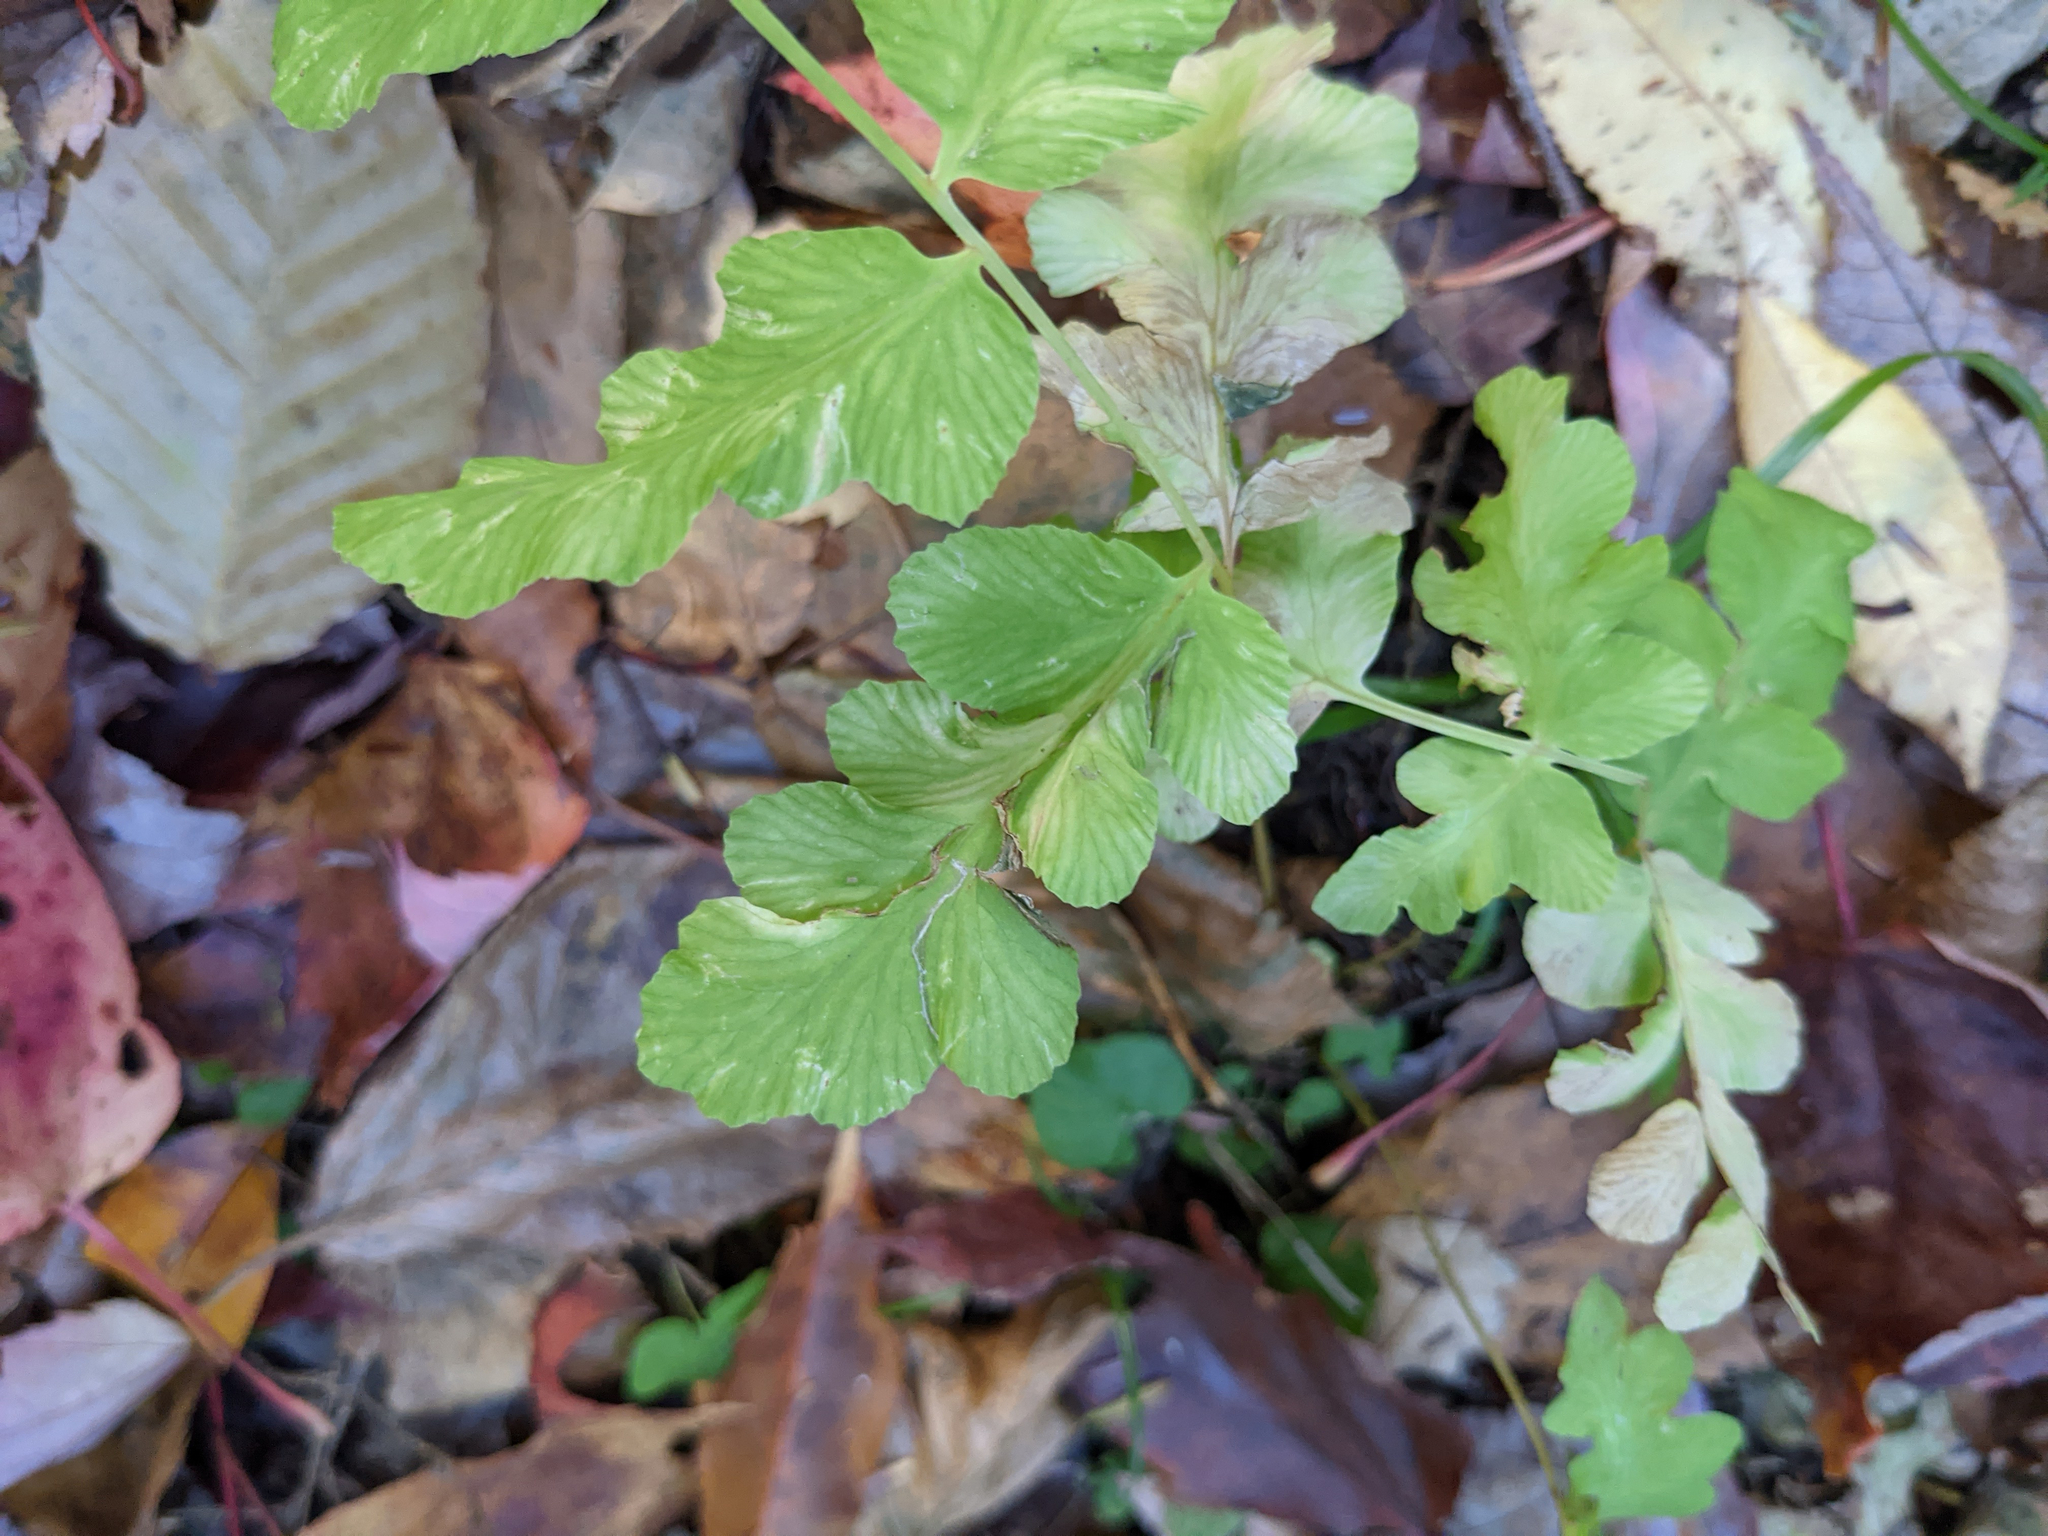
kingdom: Plantae
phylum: Tracheophyta
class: Polypodiopsida
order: Osmundales
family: Osmundaceae
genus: Claytosmunda
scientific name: Claytosmunda claytoniana
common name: Clayton's fern
